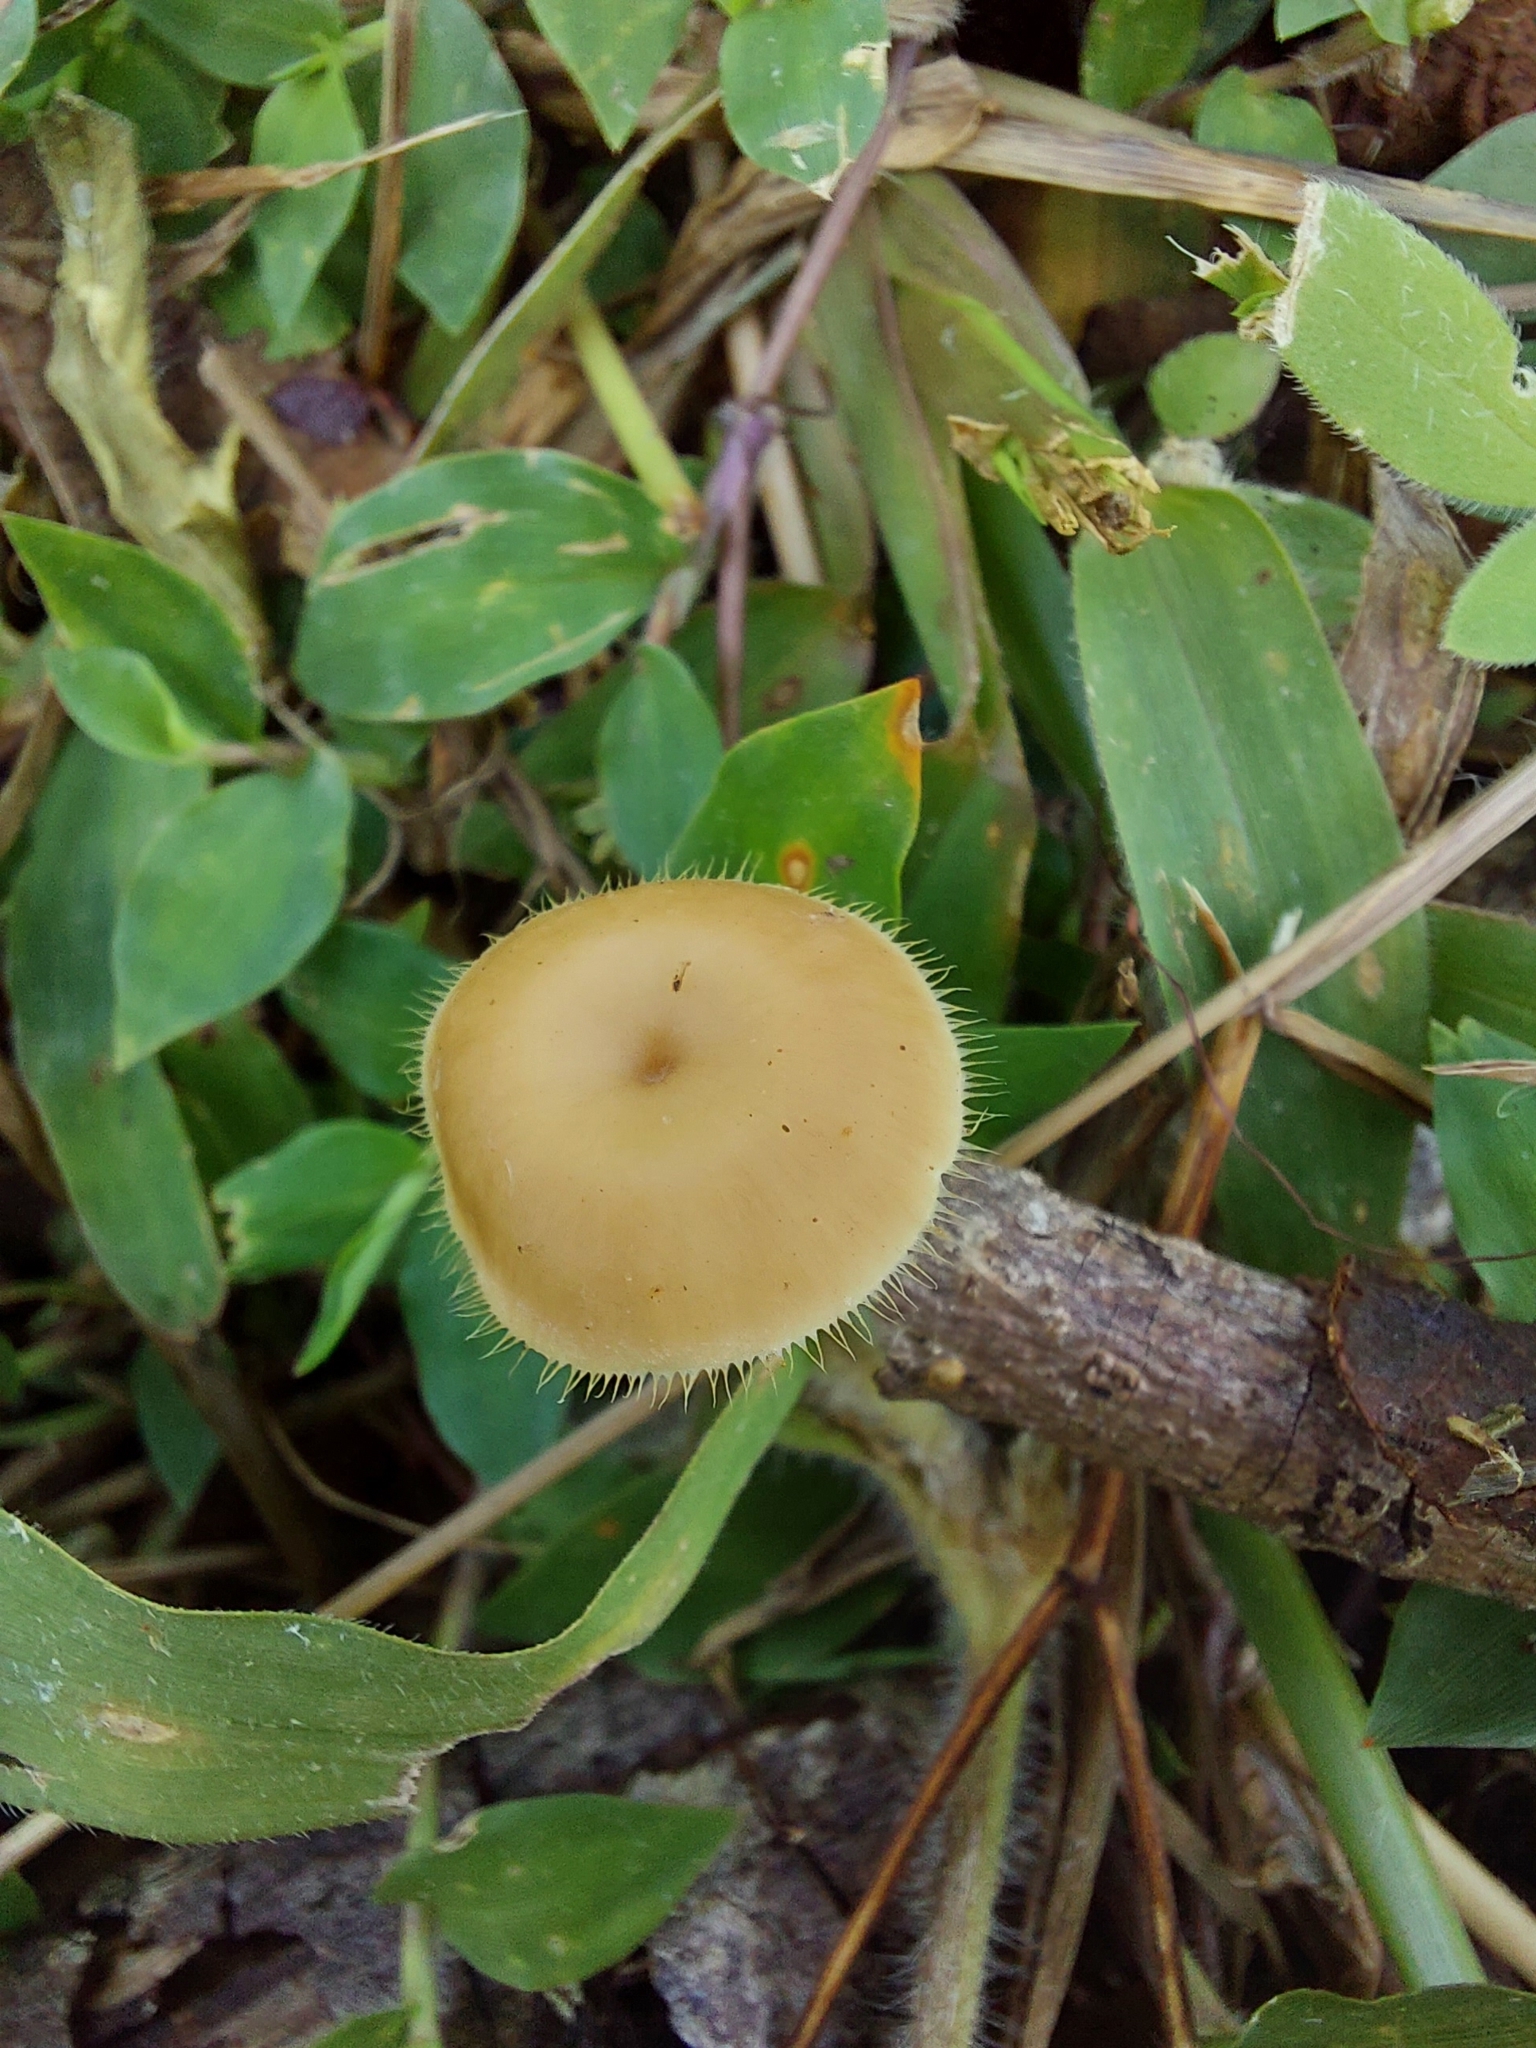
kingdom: Fungi
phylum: Basidiomycota
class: Agaricomycetes
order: Polyporales
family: Polyporaceae
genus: Lentinus
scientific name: Lentinus flexipes
